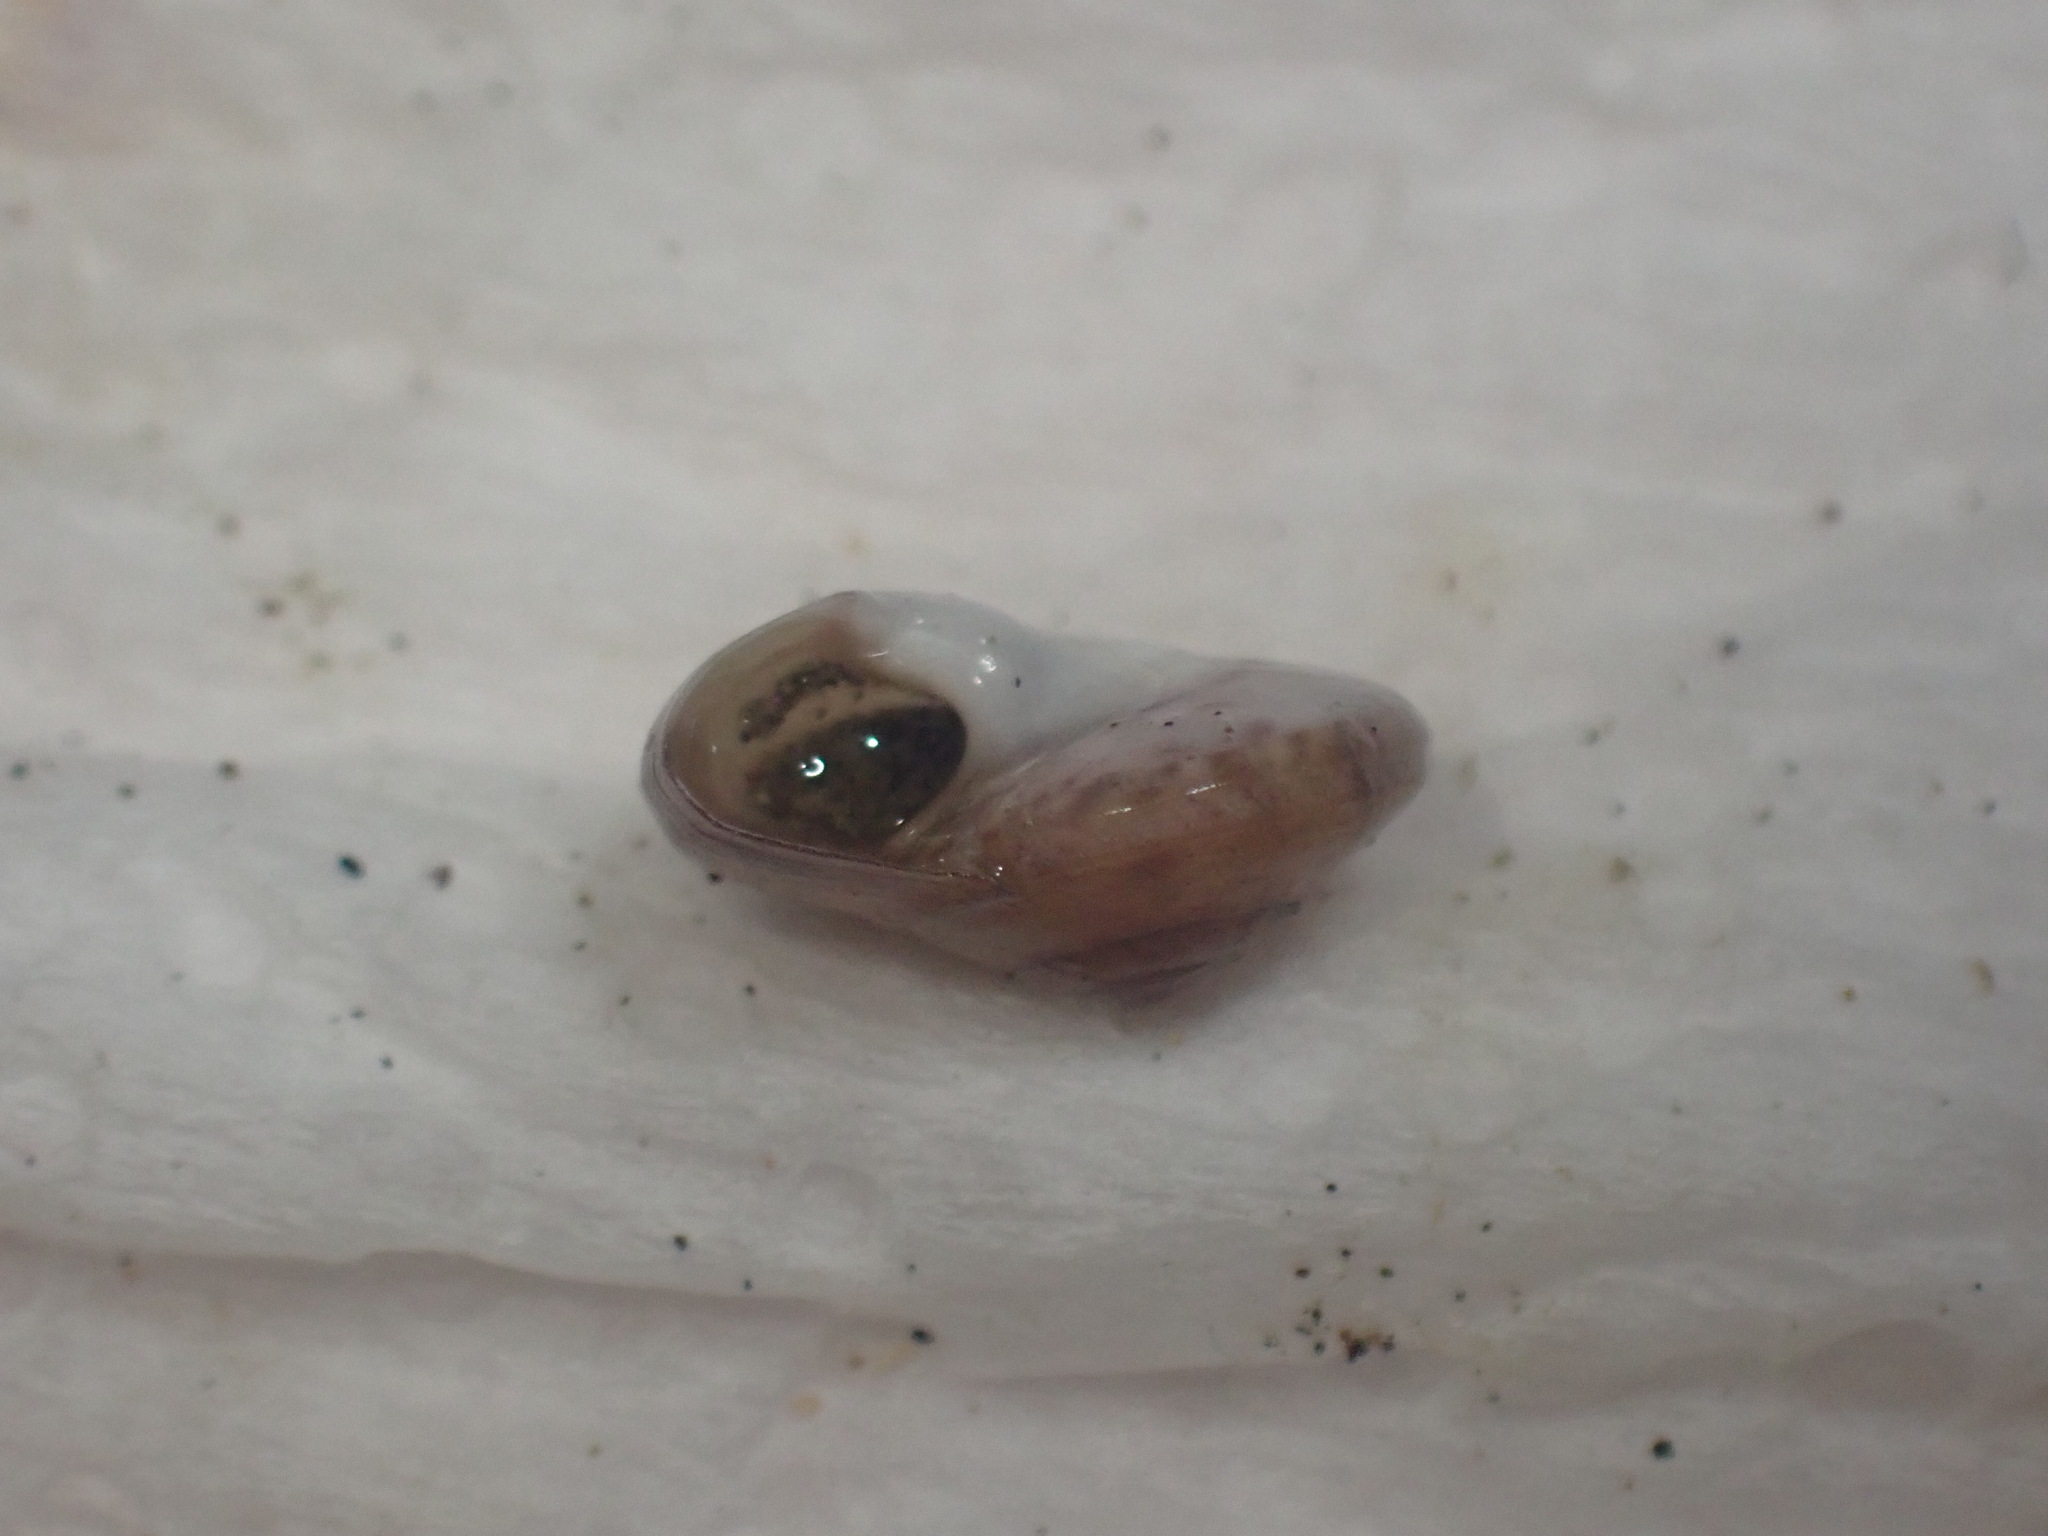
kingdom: Animalia
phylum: Mollusca
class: Gastropoda
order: Trochida
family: Trochidae
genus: Zethalia
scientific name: Zethalia zelandica
